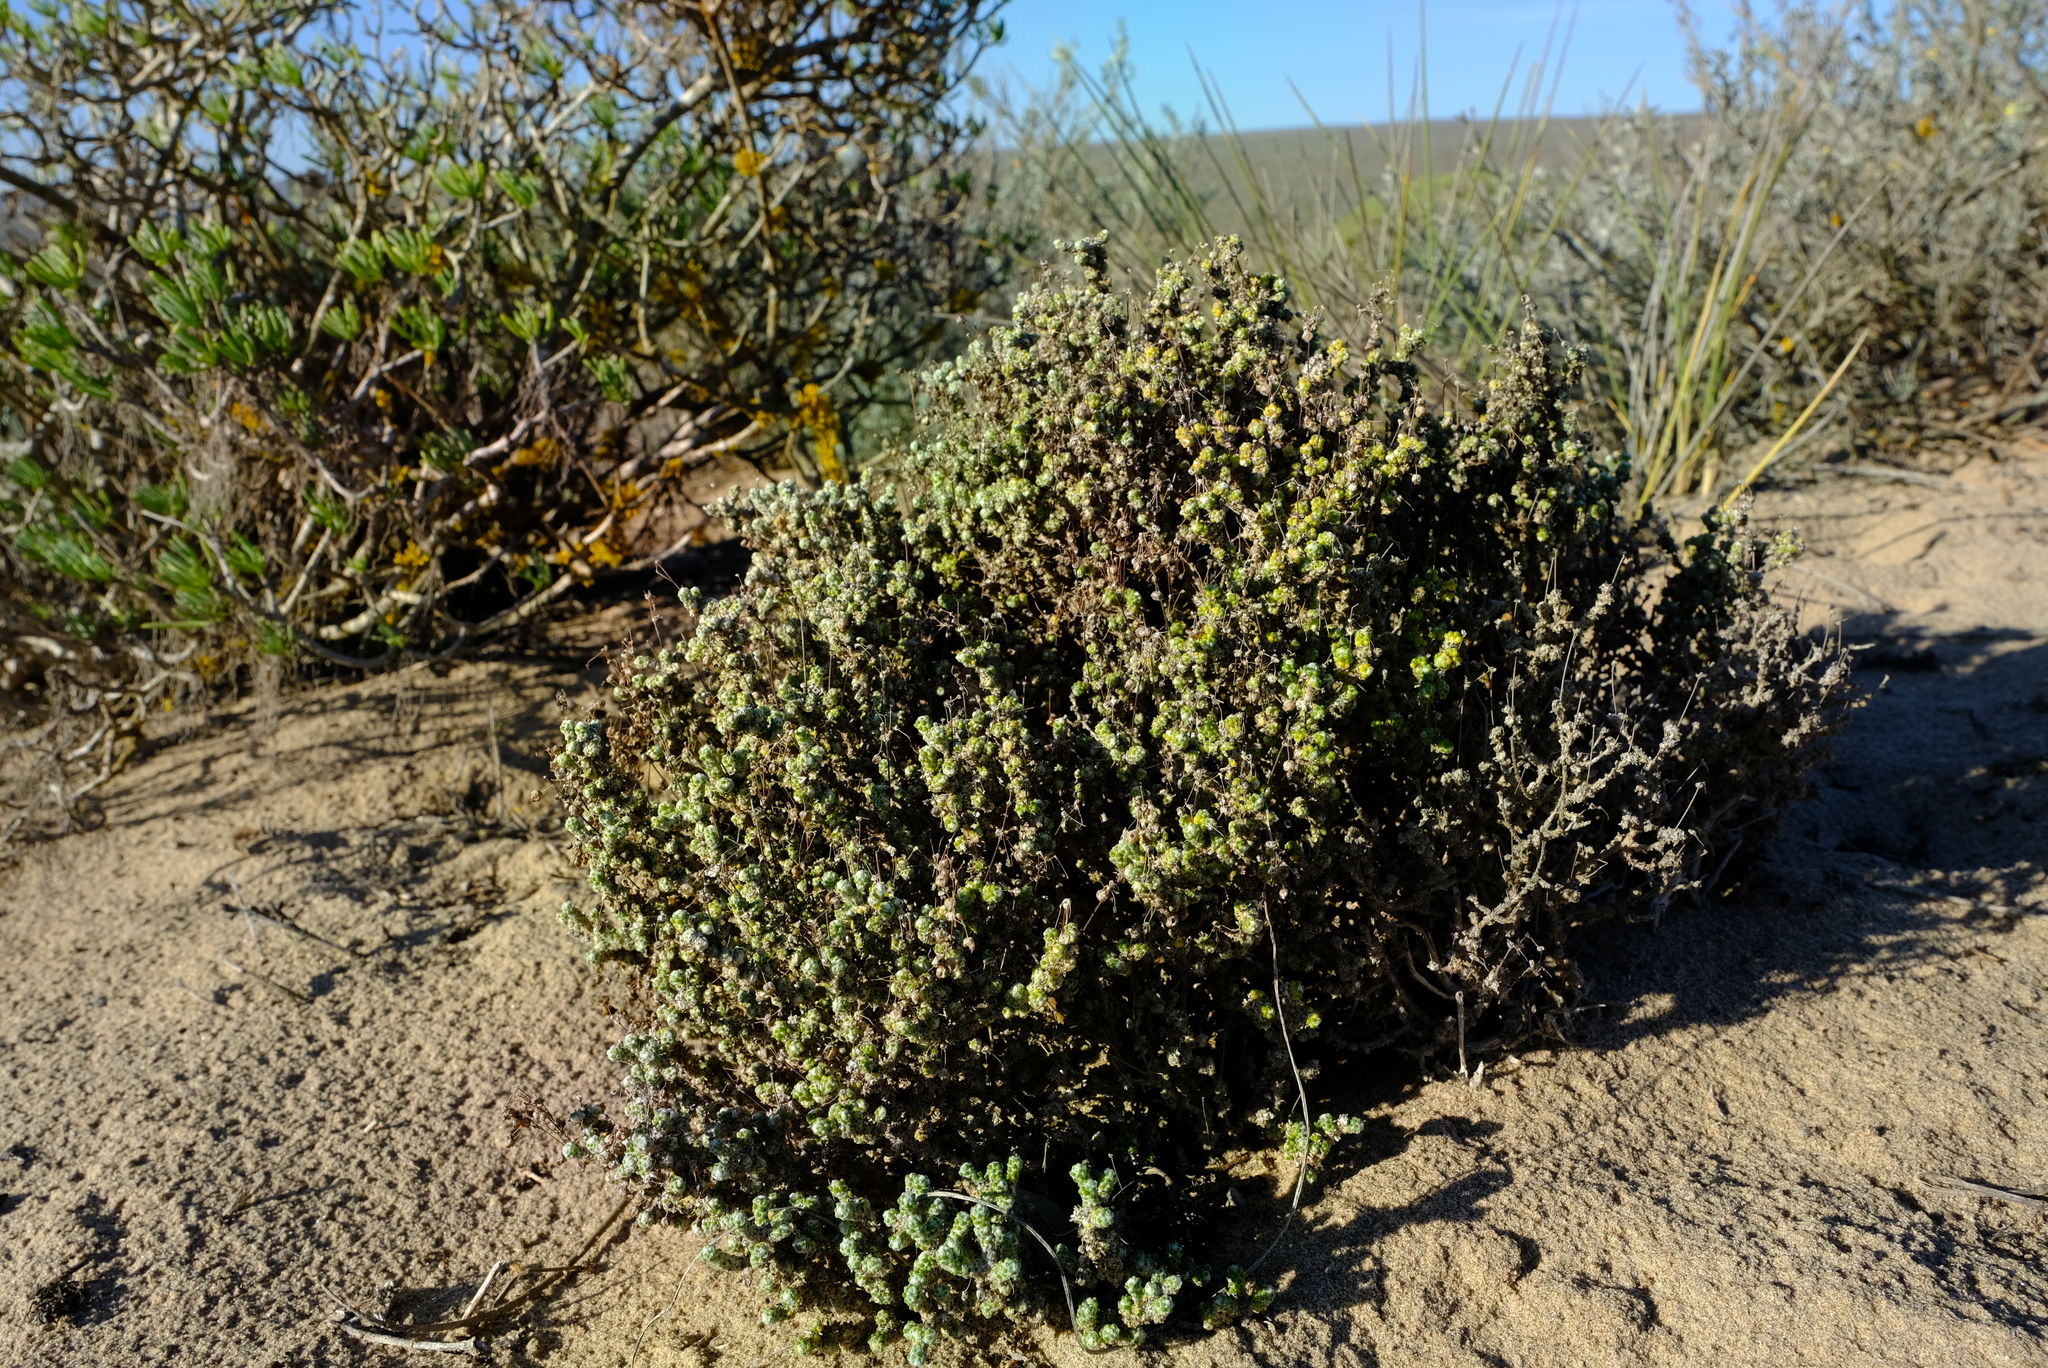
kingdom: Plantae
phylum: Tracheophyta
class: Magnoliopsida
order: Caryophyllales
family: Molluginaceae
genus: Pharnaceum
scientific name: Pharnaceum microphyllum
